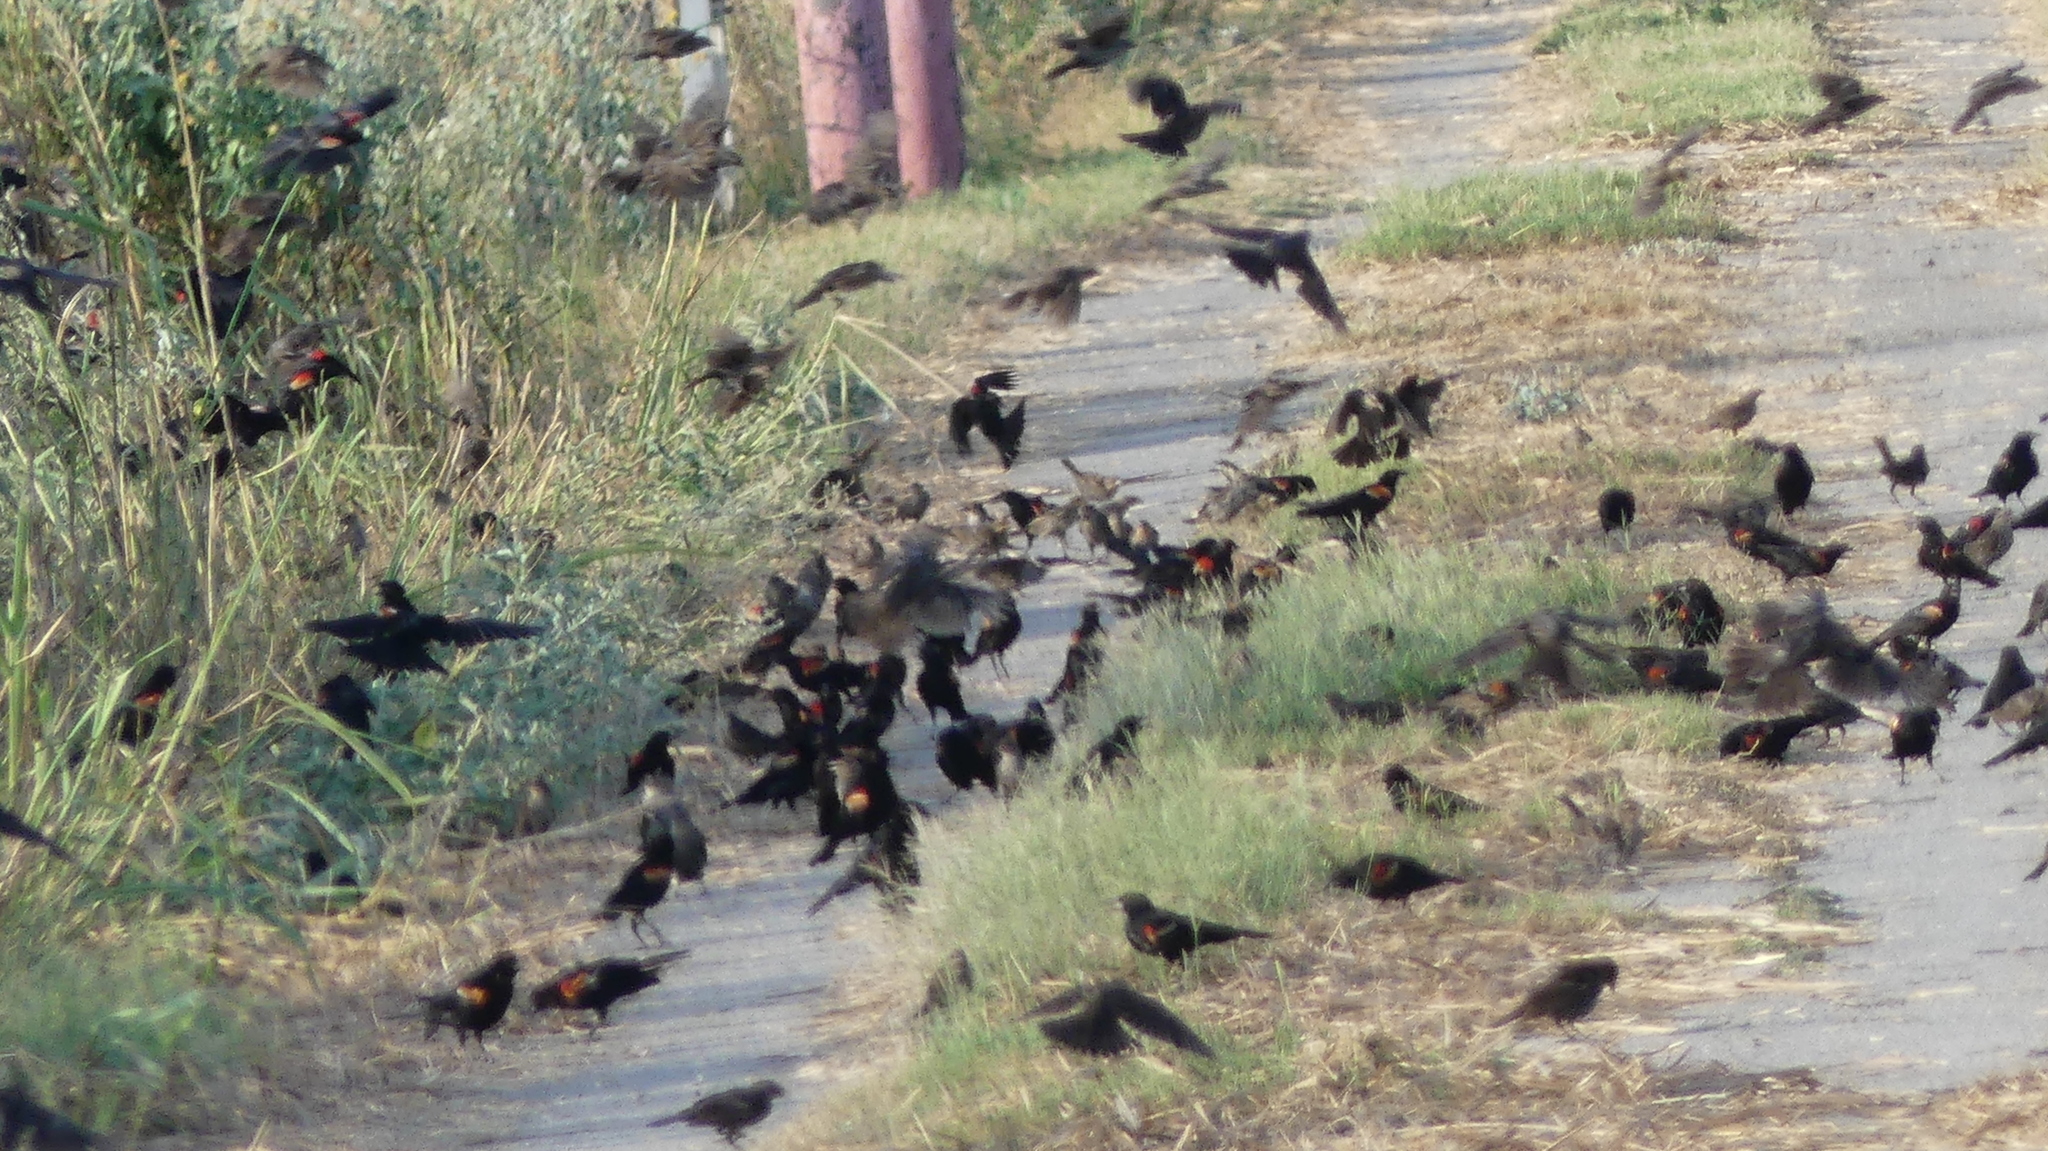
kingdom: Animalia
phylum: Chordata
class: Aves
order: Passeriformes
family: Icteridae
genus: Agelaius
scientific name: Agelaius phoeniceus
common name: Red-winged blackbird
